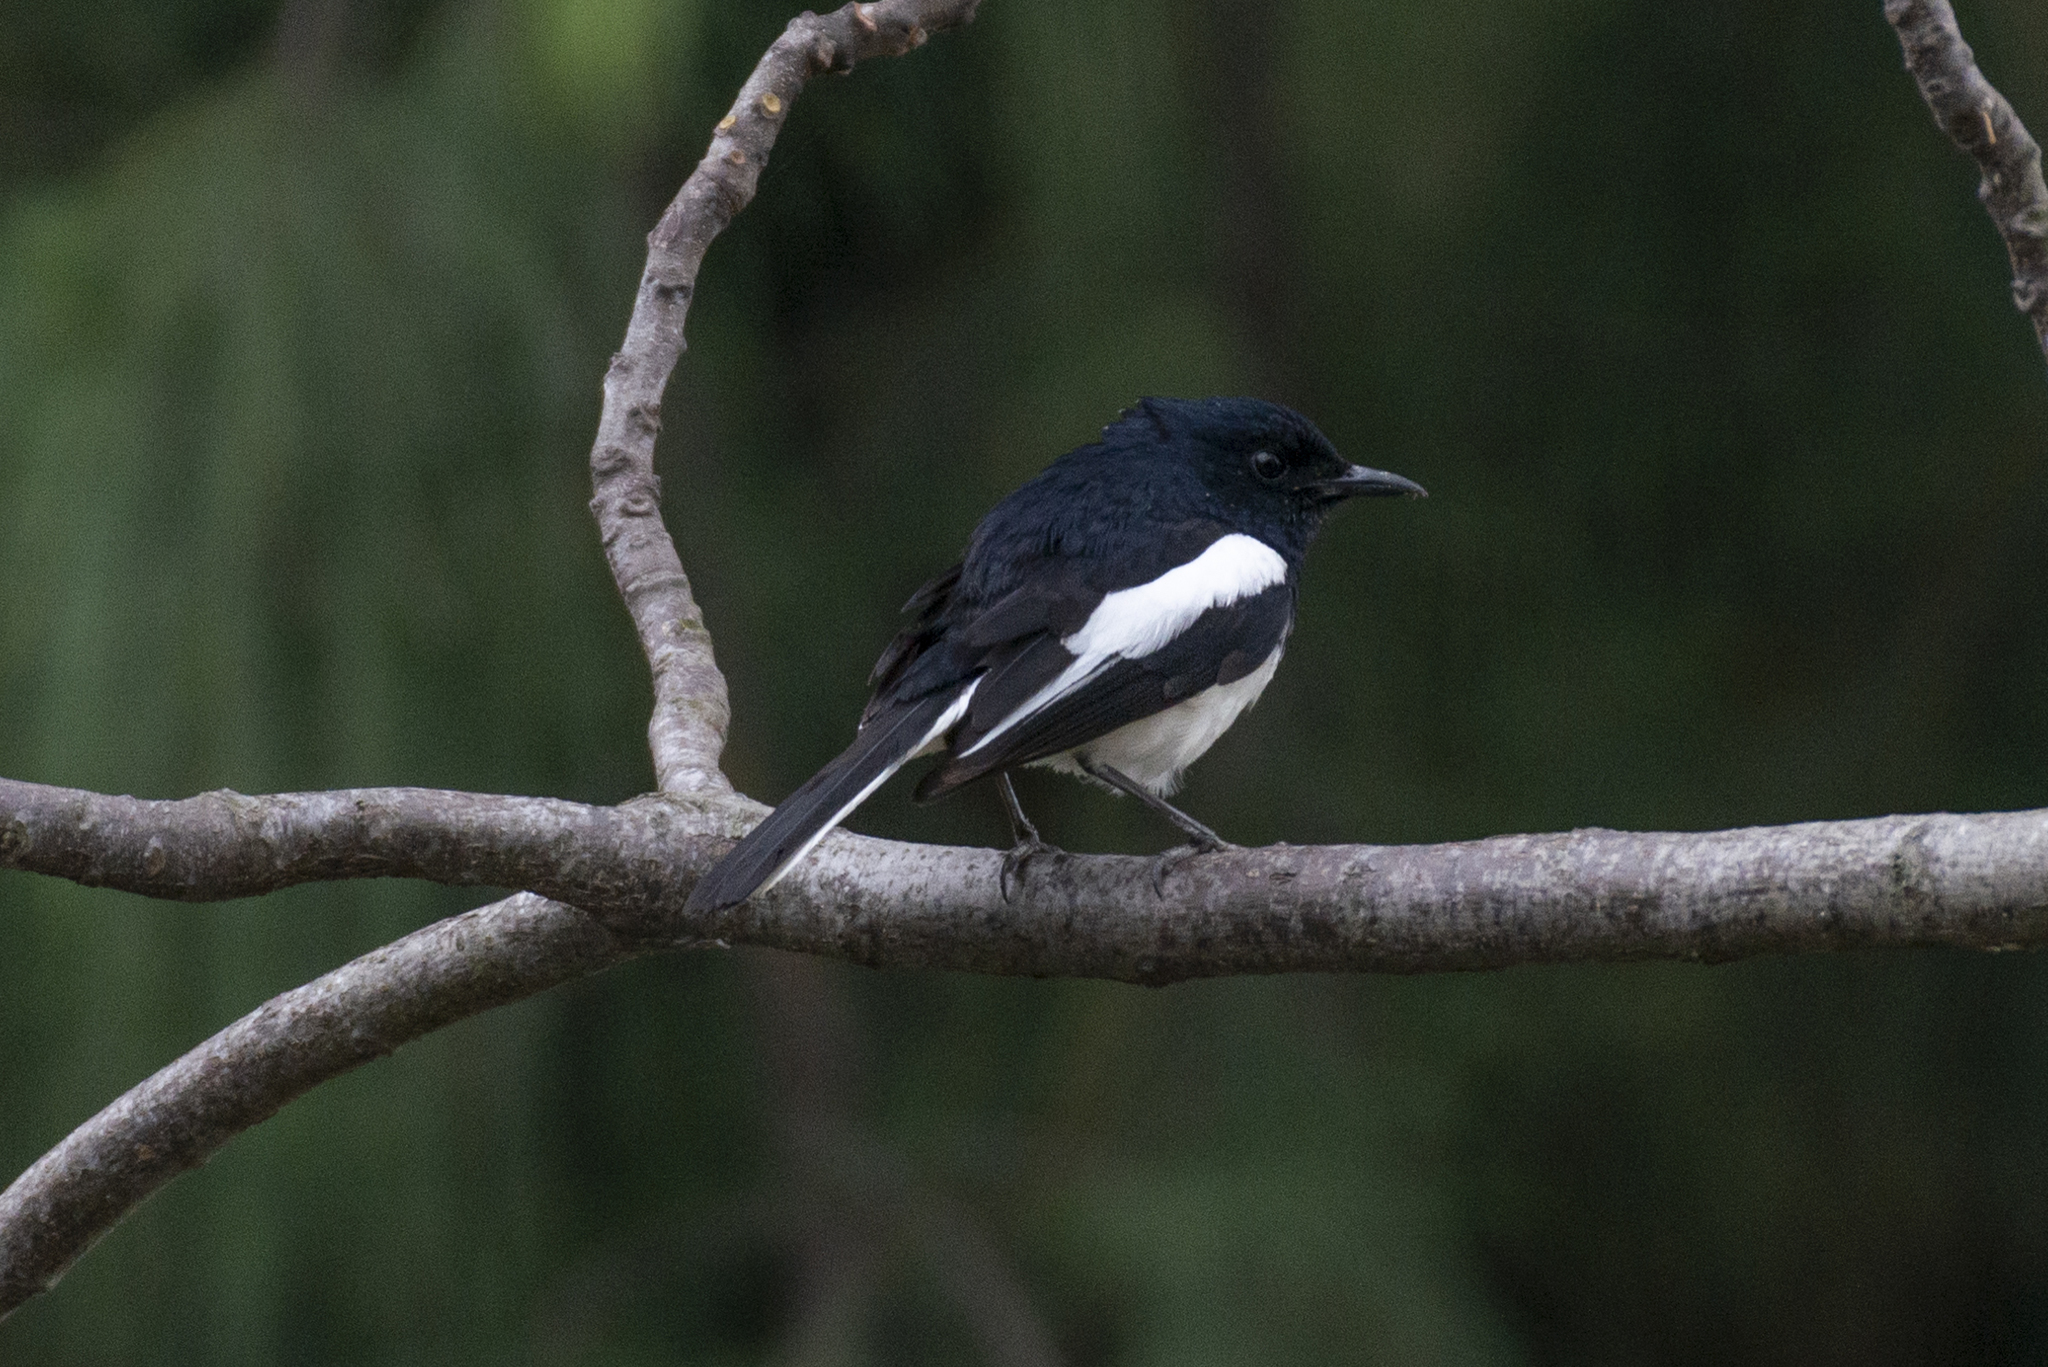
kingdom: Animalia
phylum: Chordata
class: Aves
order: Passeriformes
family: Muscicapidae
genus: Copsychus
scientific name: Copsychus saularis
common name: Oriental magpie-robin
